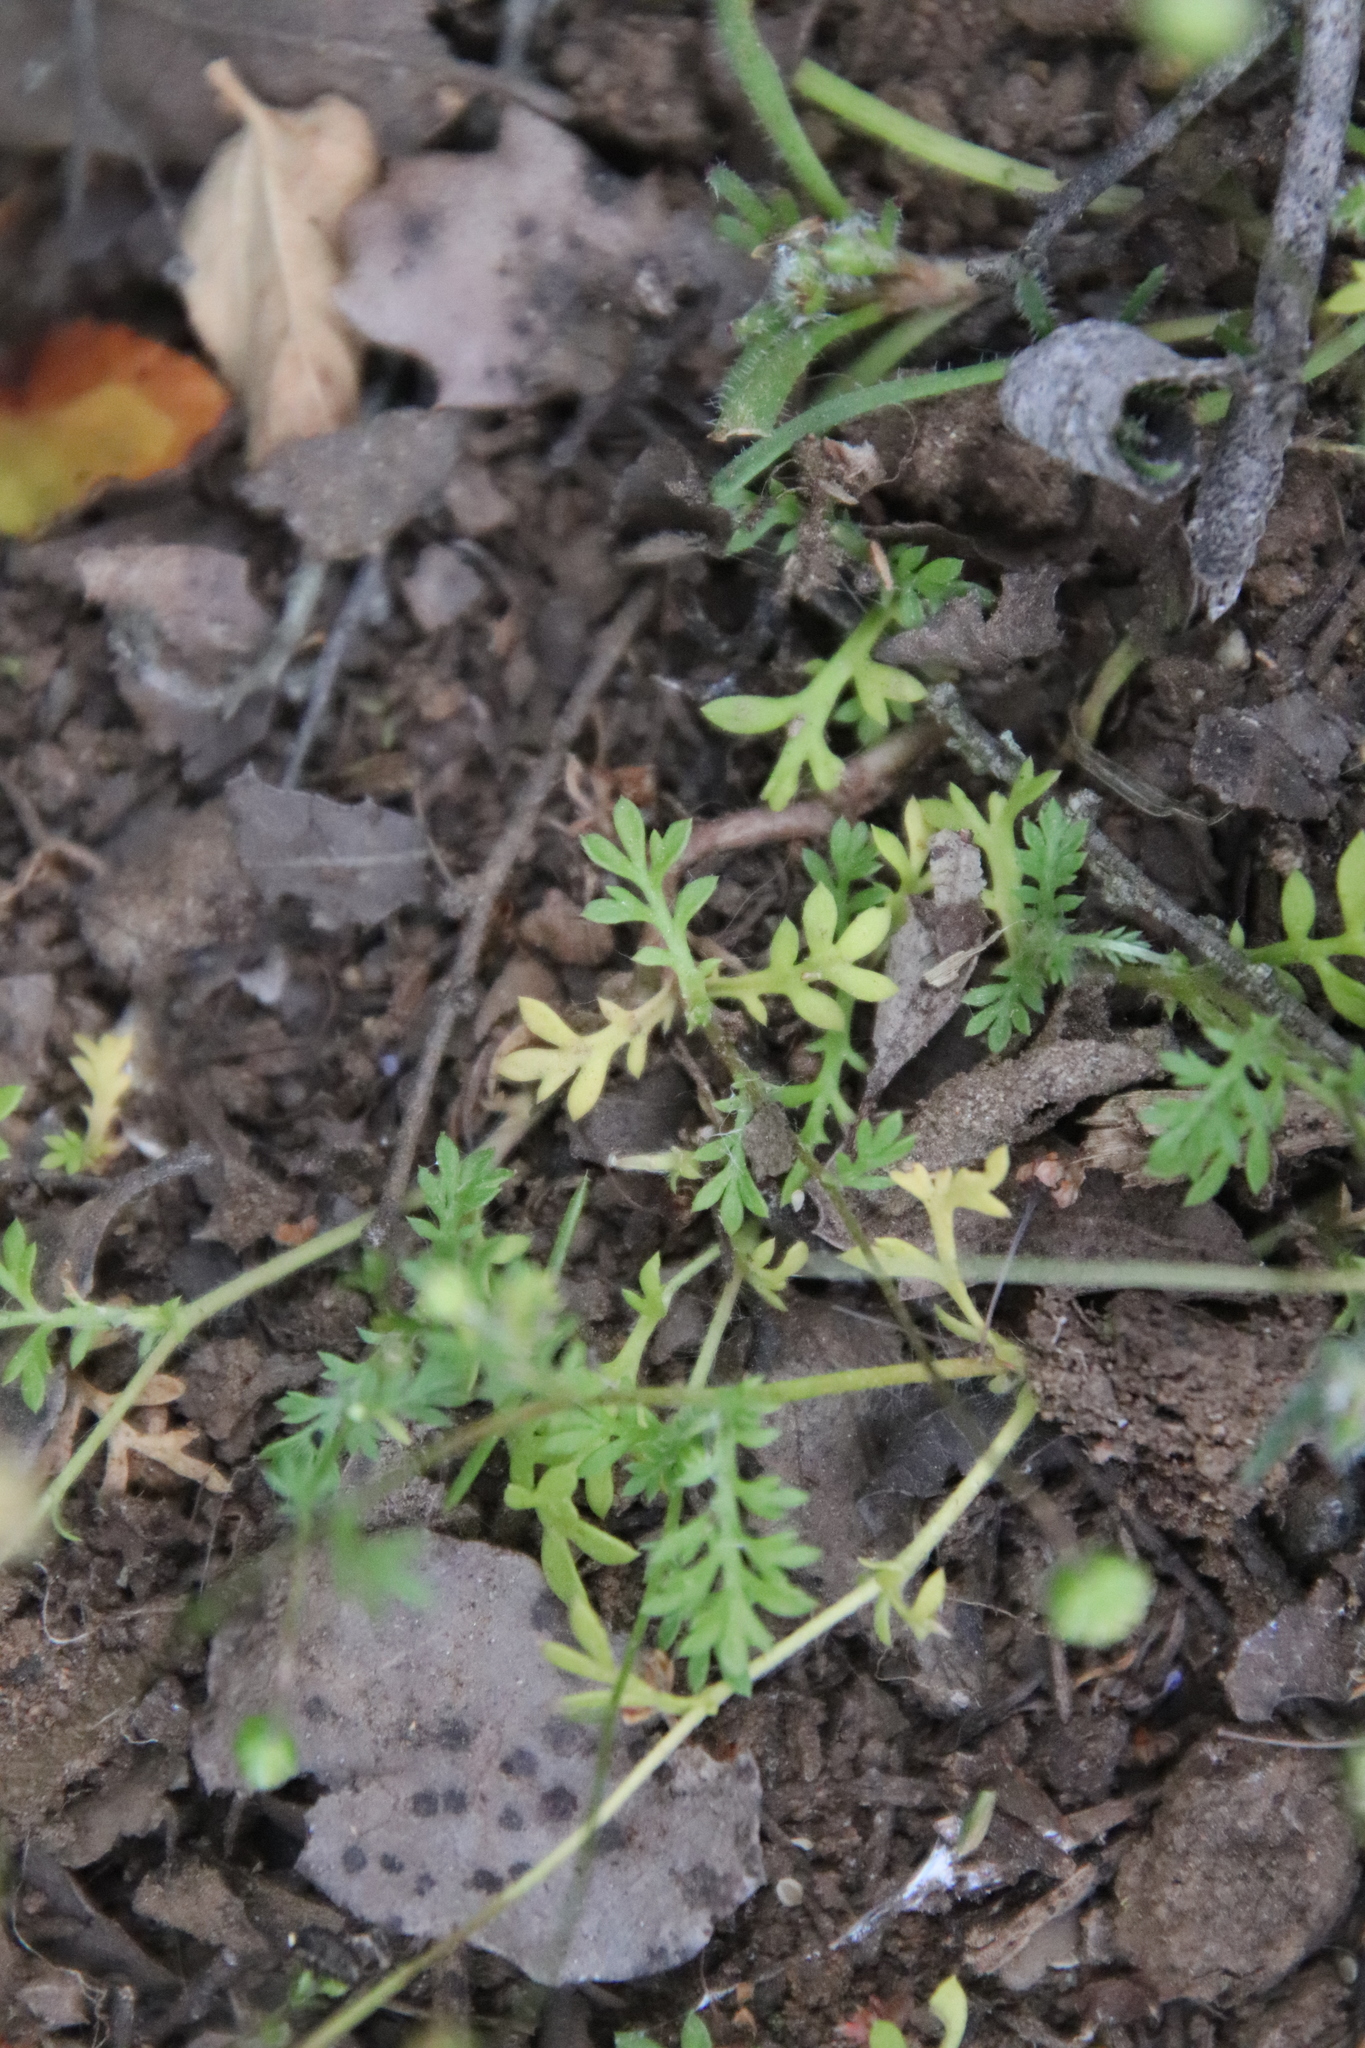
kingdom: Plantae
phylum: Tracheophyta
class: Magnoliopsida
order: Asterales
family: Asteraceae
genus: Cotula
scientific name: Cotula australis
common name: Australian waterbuttons
